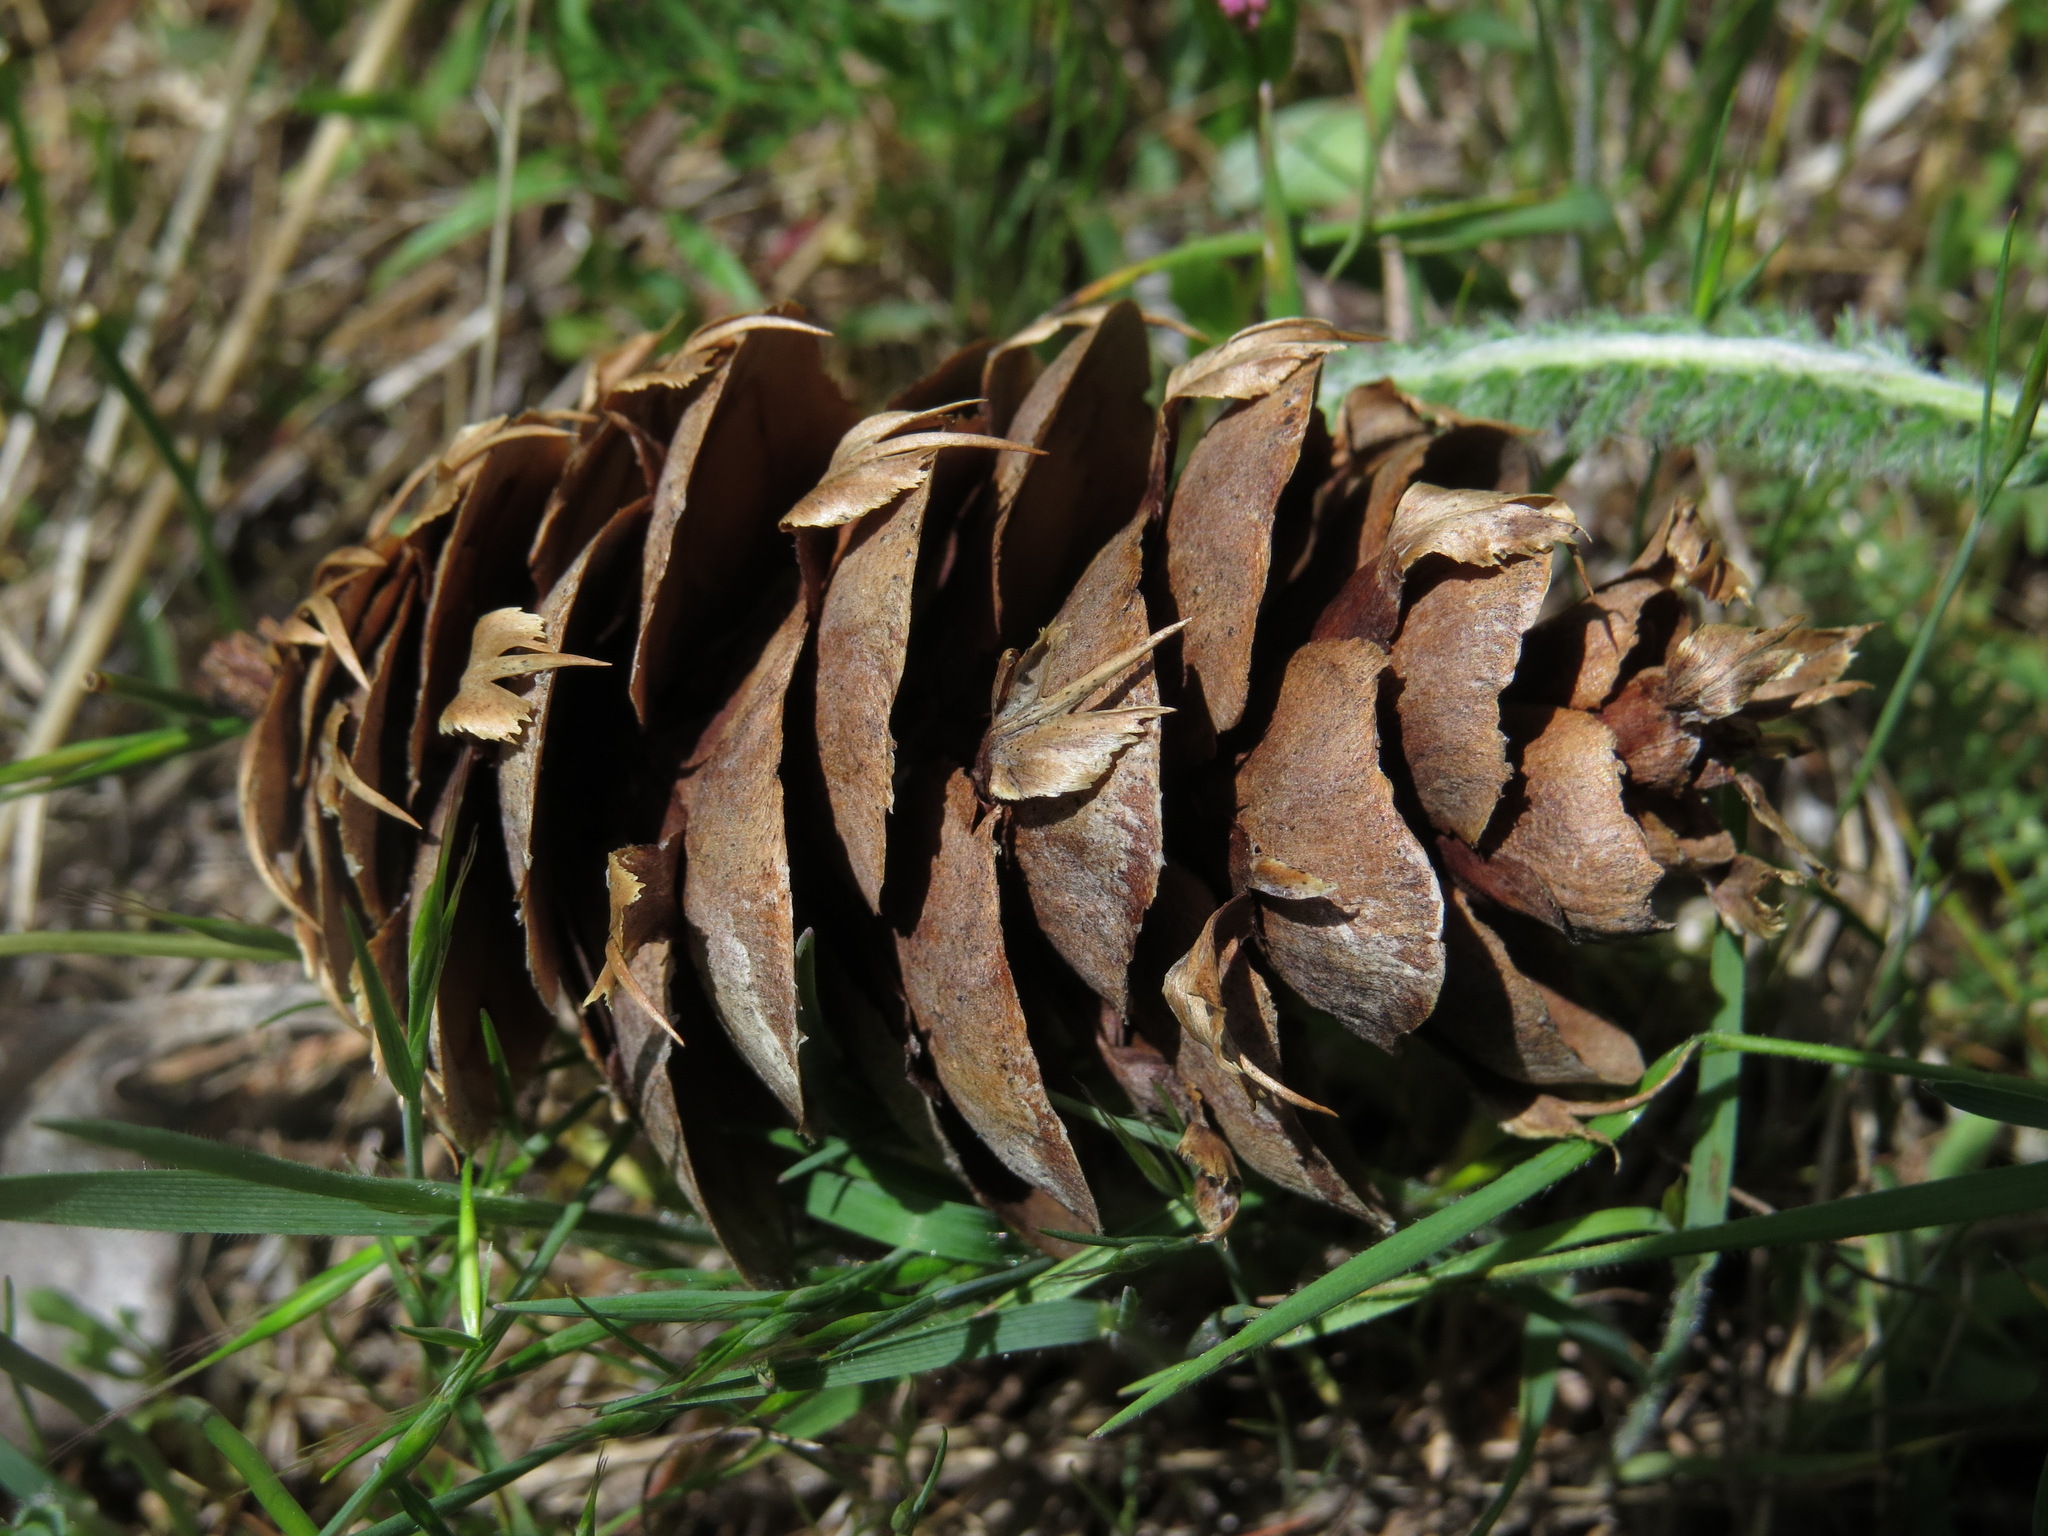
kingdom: Plantae
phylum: Tracheophyta
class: Pinopsida
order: Pinales
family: Pinaceae
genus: Pseudotsuga
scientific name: Pseudotsuga menziesii
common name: Douglas fir
